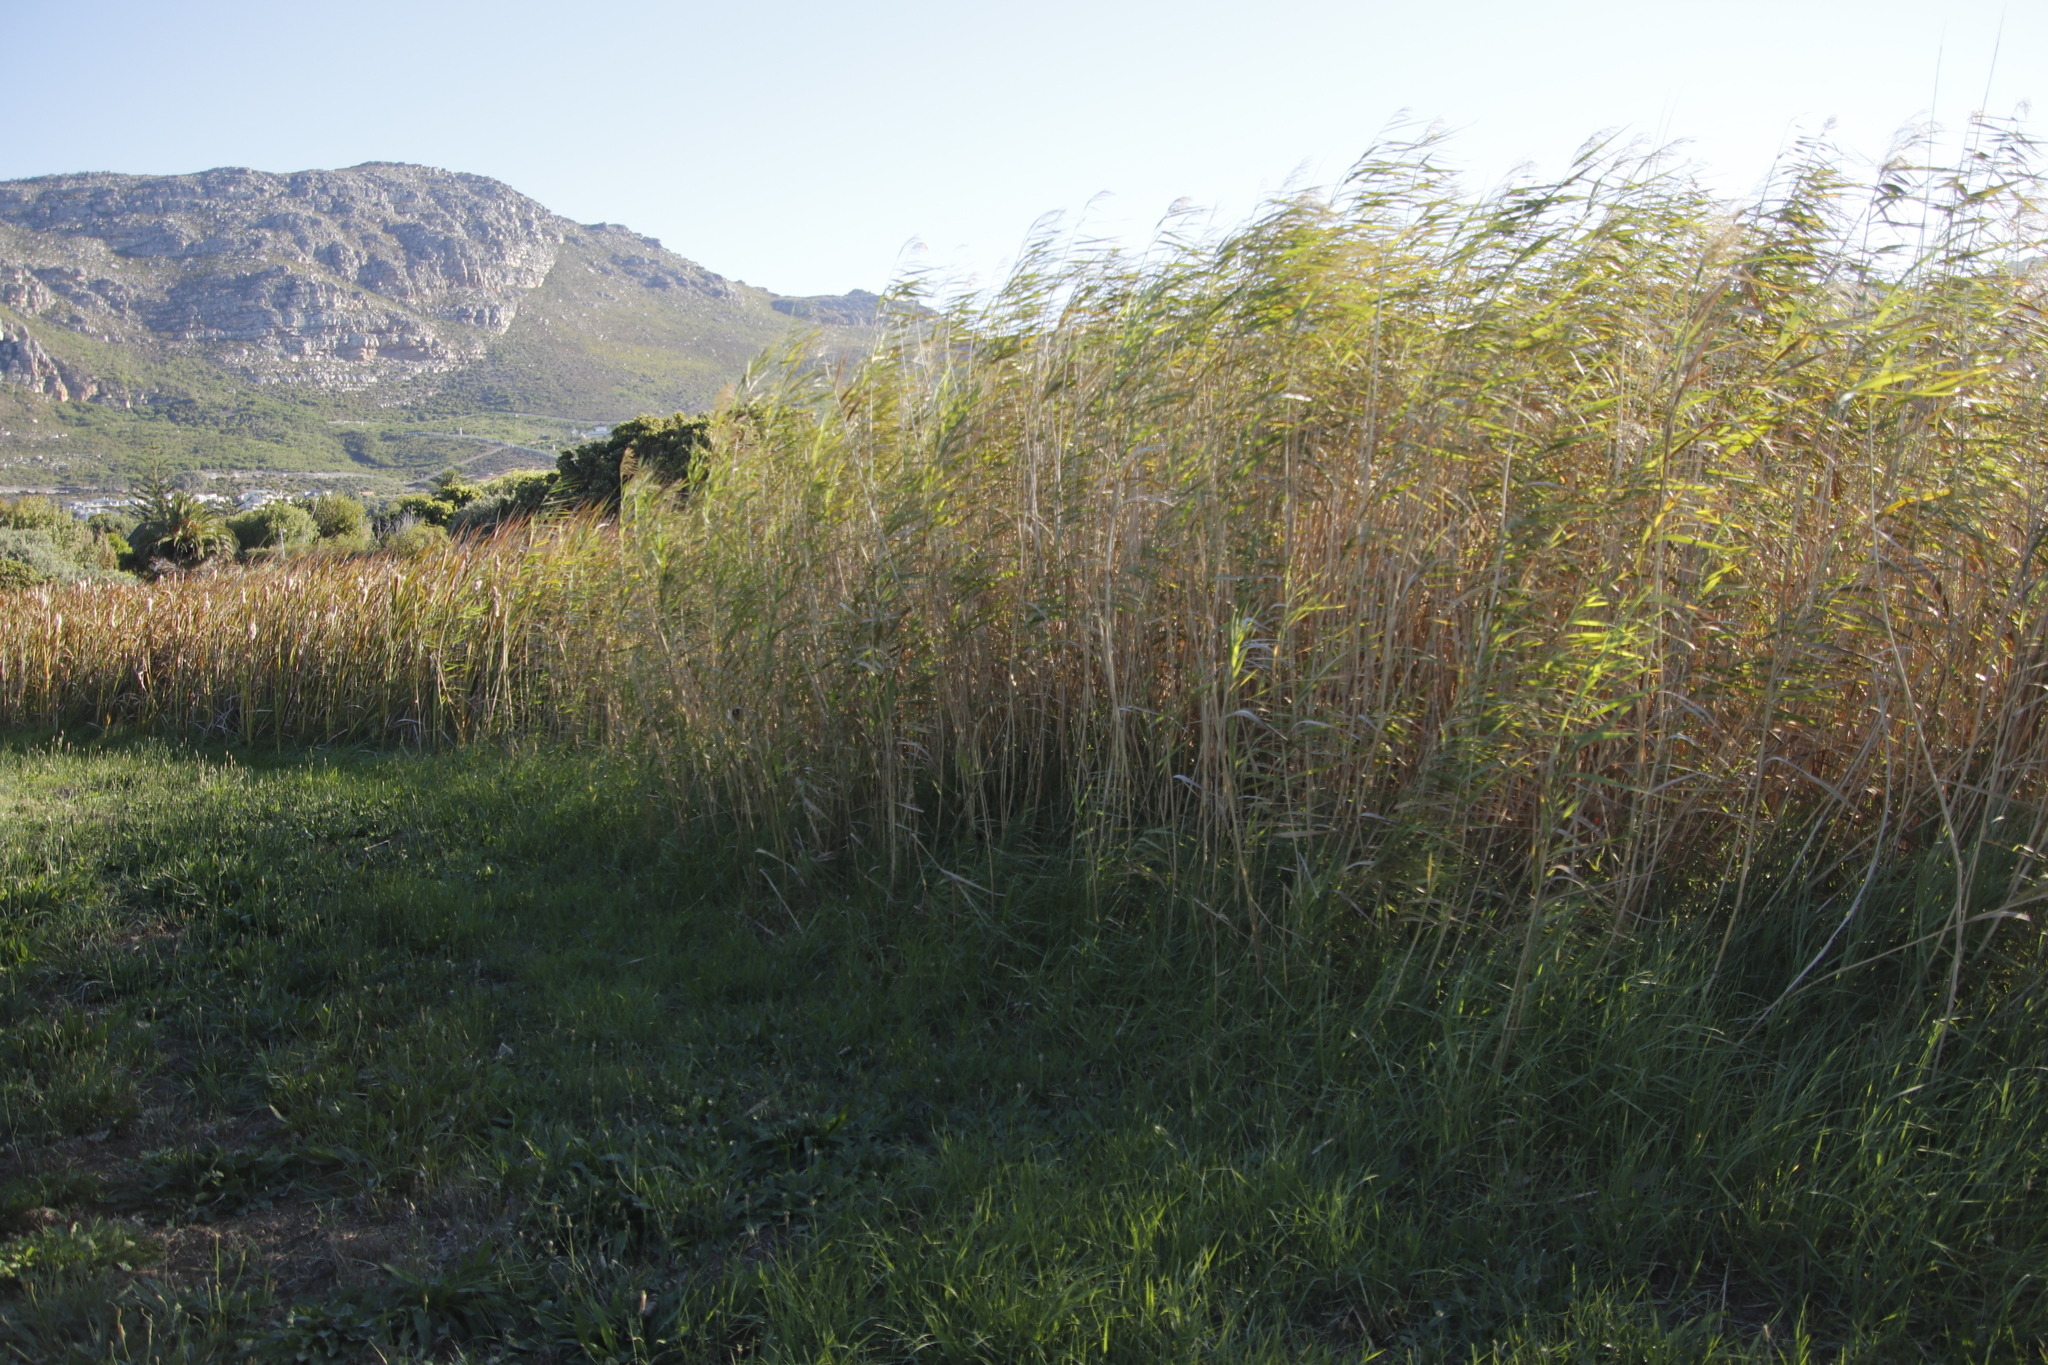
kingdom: Plantae
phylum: Tracheophyta
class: Liliopsida
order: Poales
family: Poaceae
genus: Phragmites
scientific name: Phragmites australis
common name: Common reed
